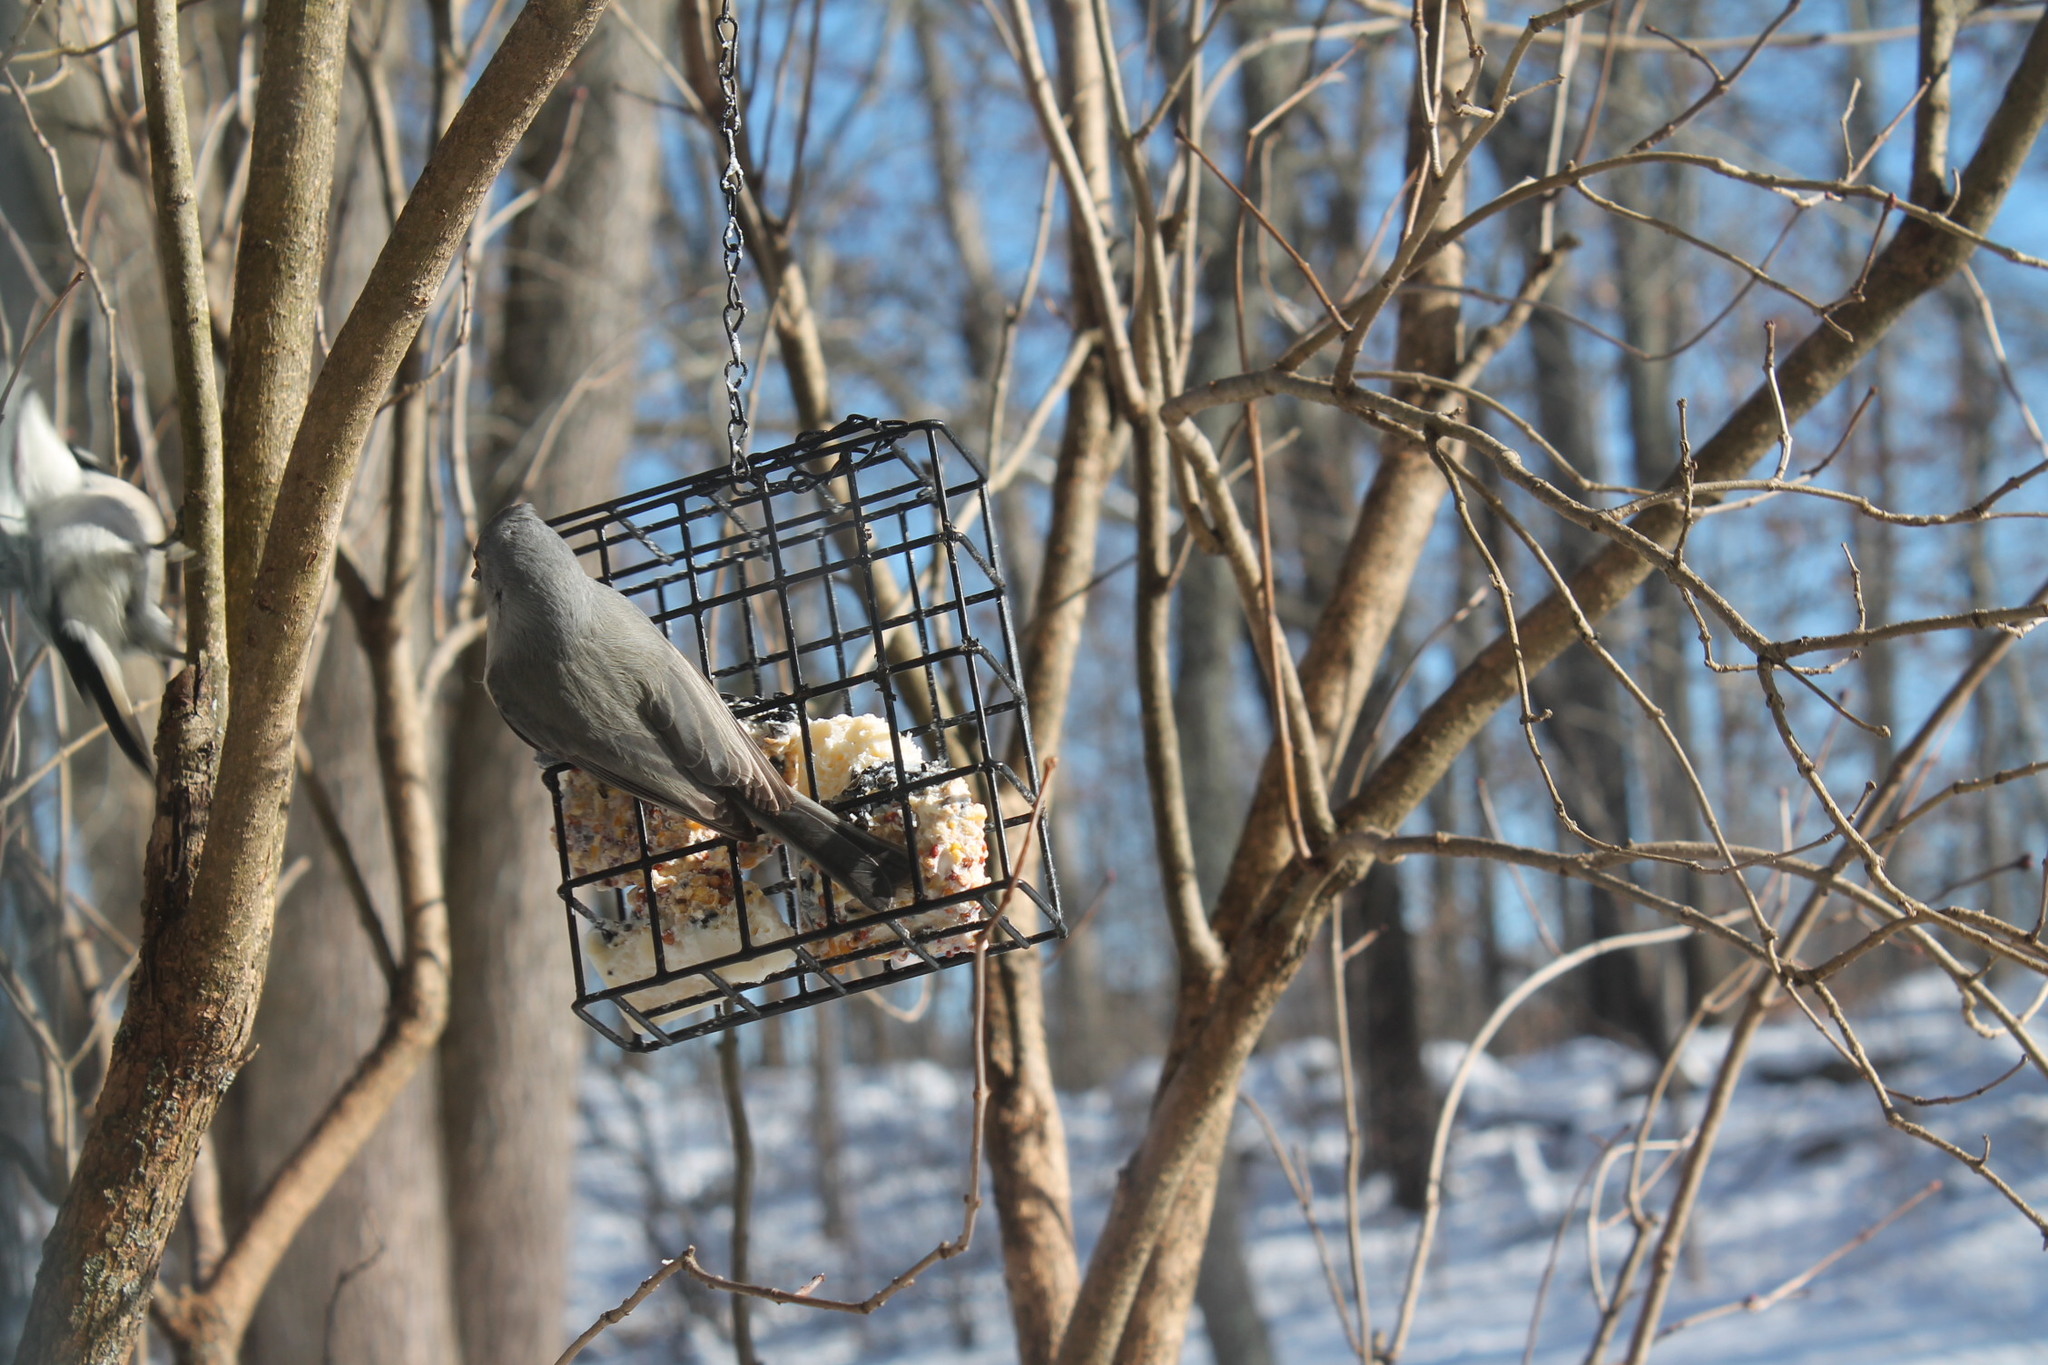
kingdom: Animalia
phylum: Chordata
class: Aves
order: Passeriformes
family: Paridae
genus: Baeolophus
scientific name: Baeolophus bicolor
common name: Tufted titmouse
